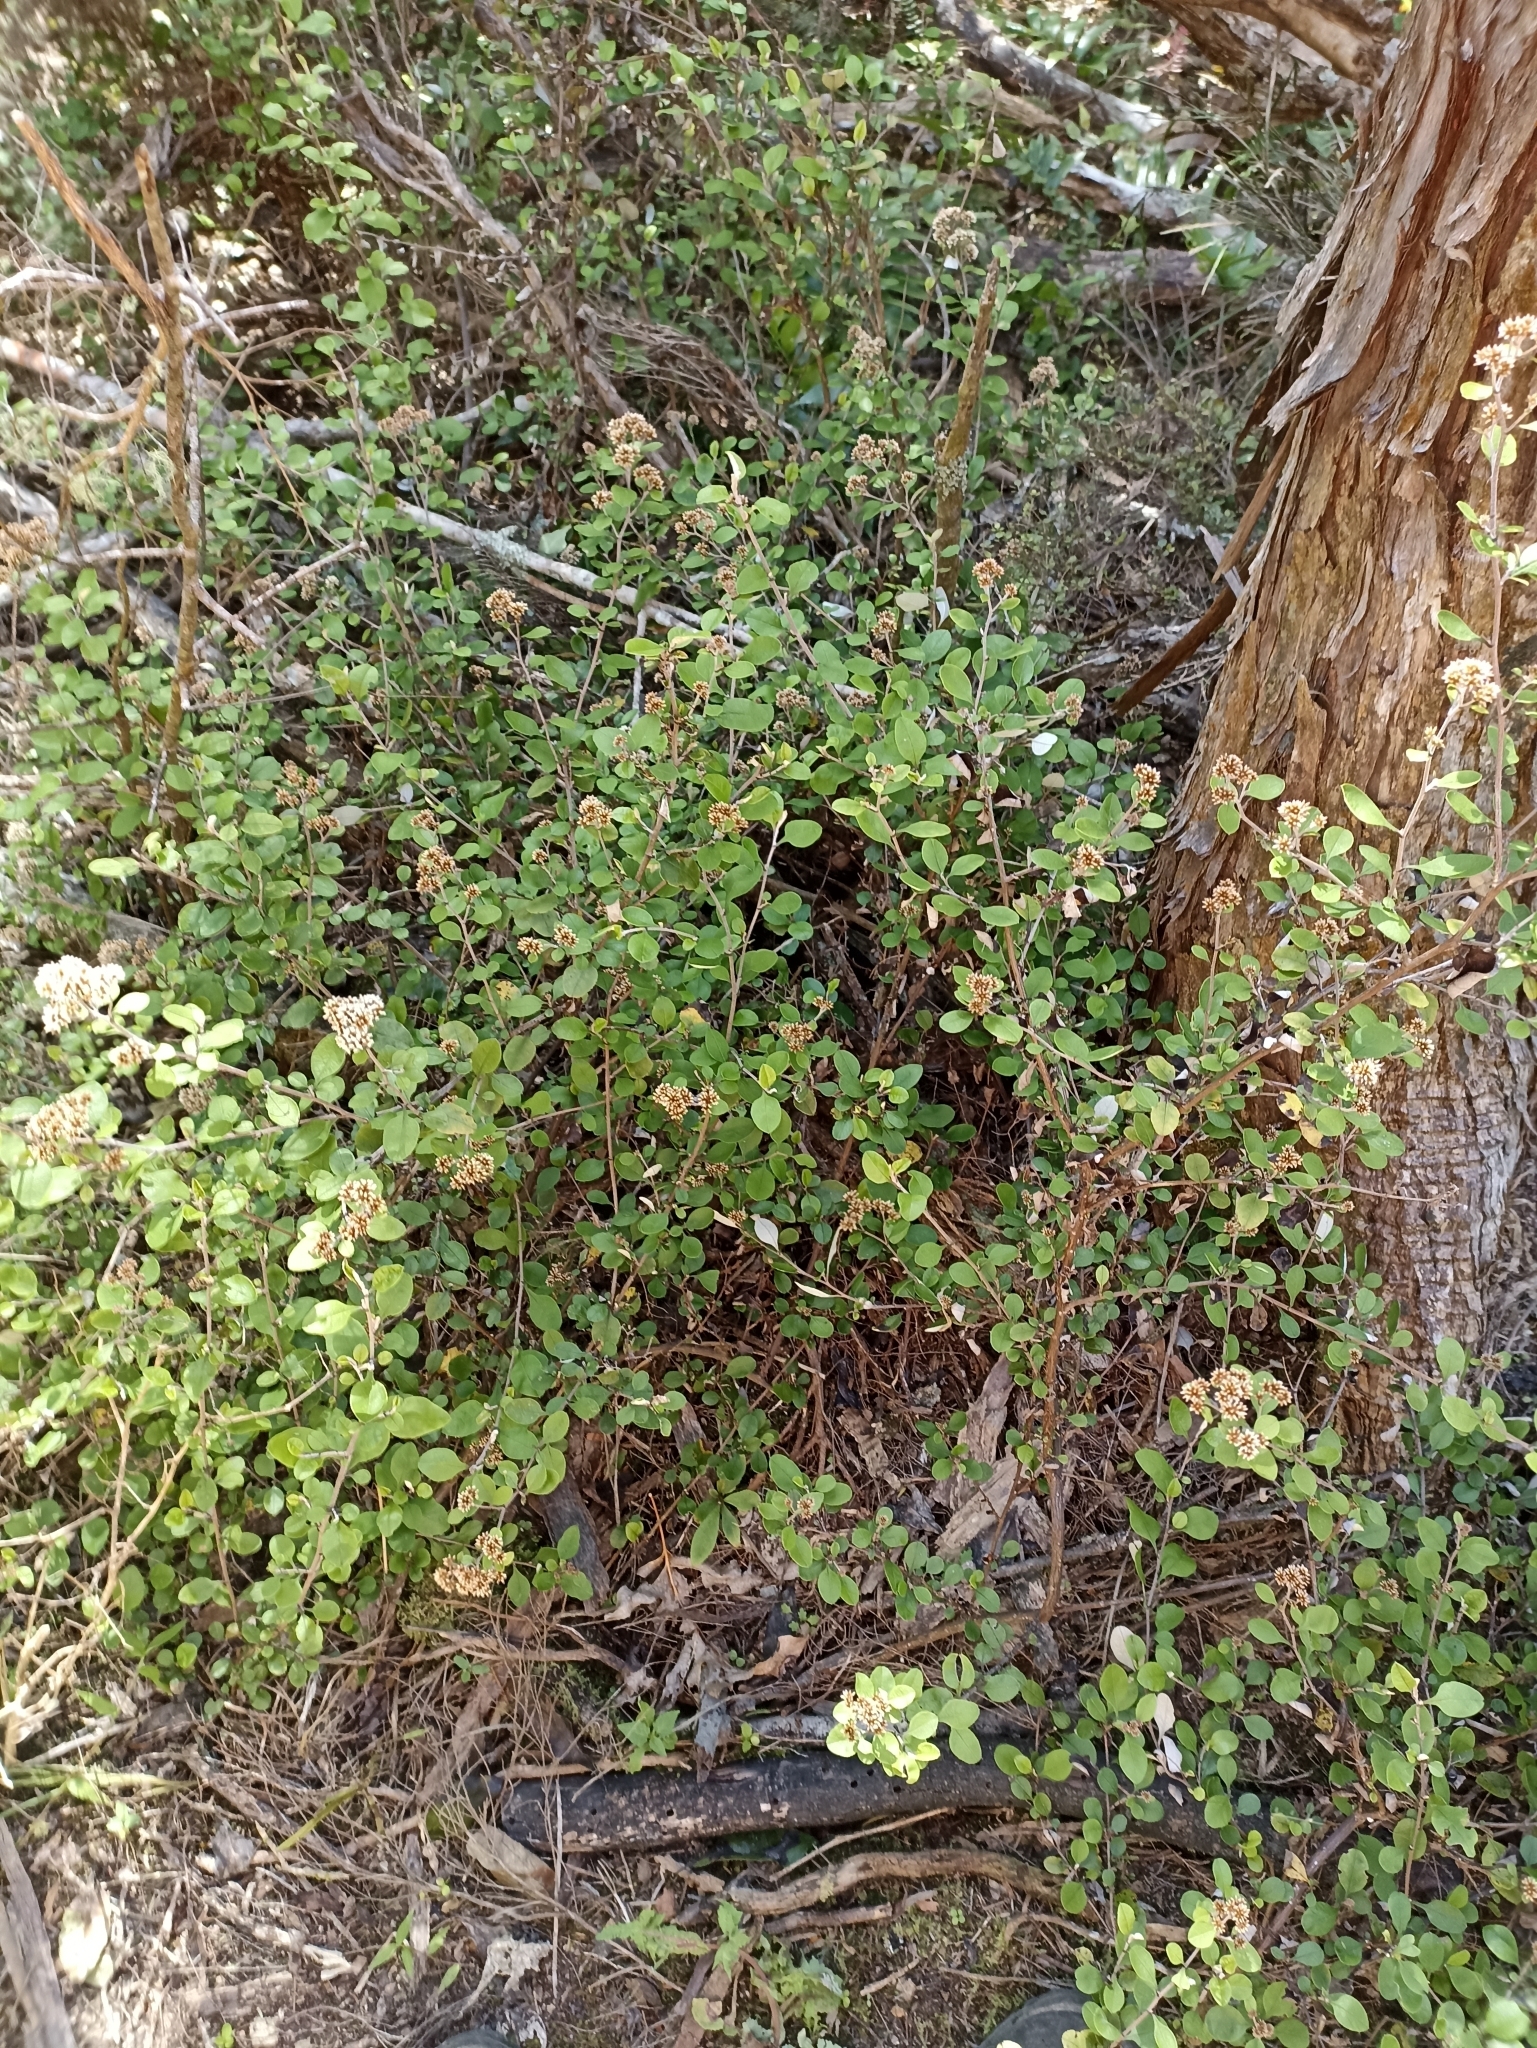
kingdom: Plantae
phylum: Tracheophyta
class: Magnoliopsida
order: Asterales
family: Asteraceae
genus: Ozothamnus
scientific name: Ozothamnus glomeratus
